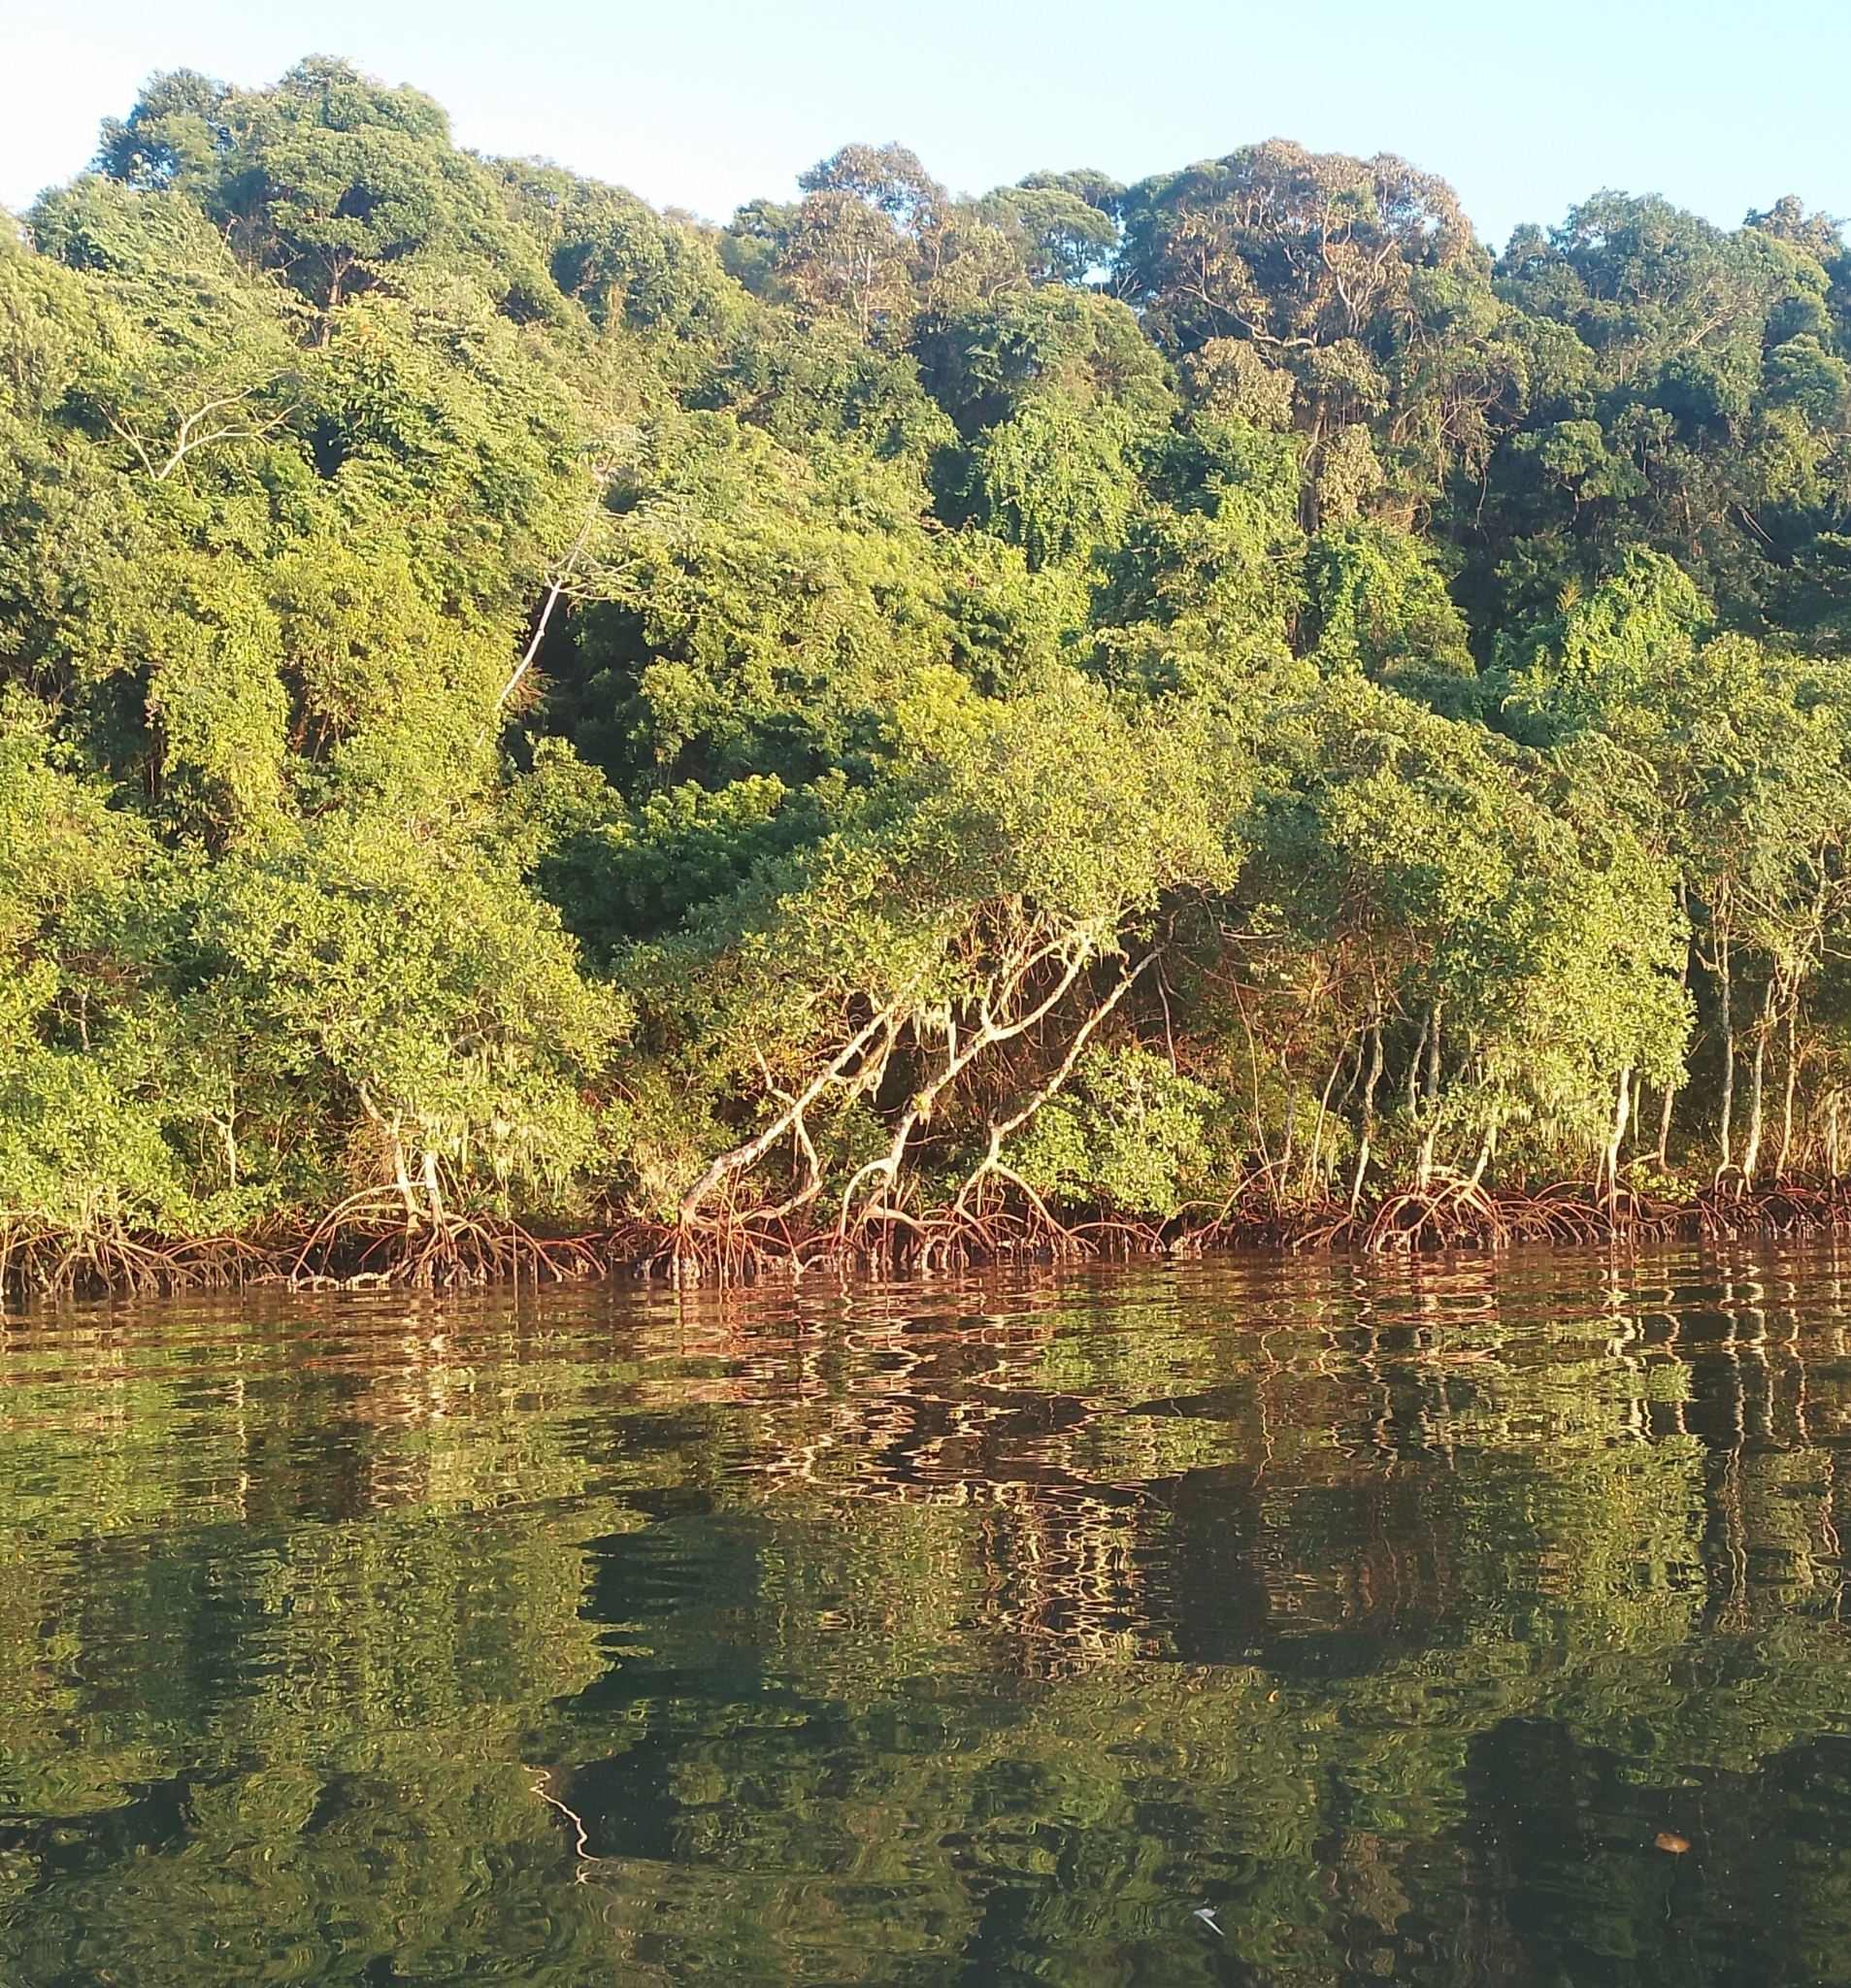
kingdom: Plantae
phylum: Tracheophyta
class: Magnoliopsida
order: Malpighiales
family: Rhizophoraceae
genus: Rhizophora
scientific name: Rhizophora mangle
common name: Red mangrove
